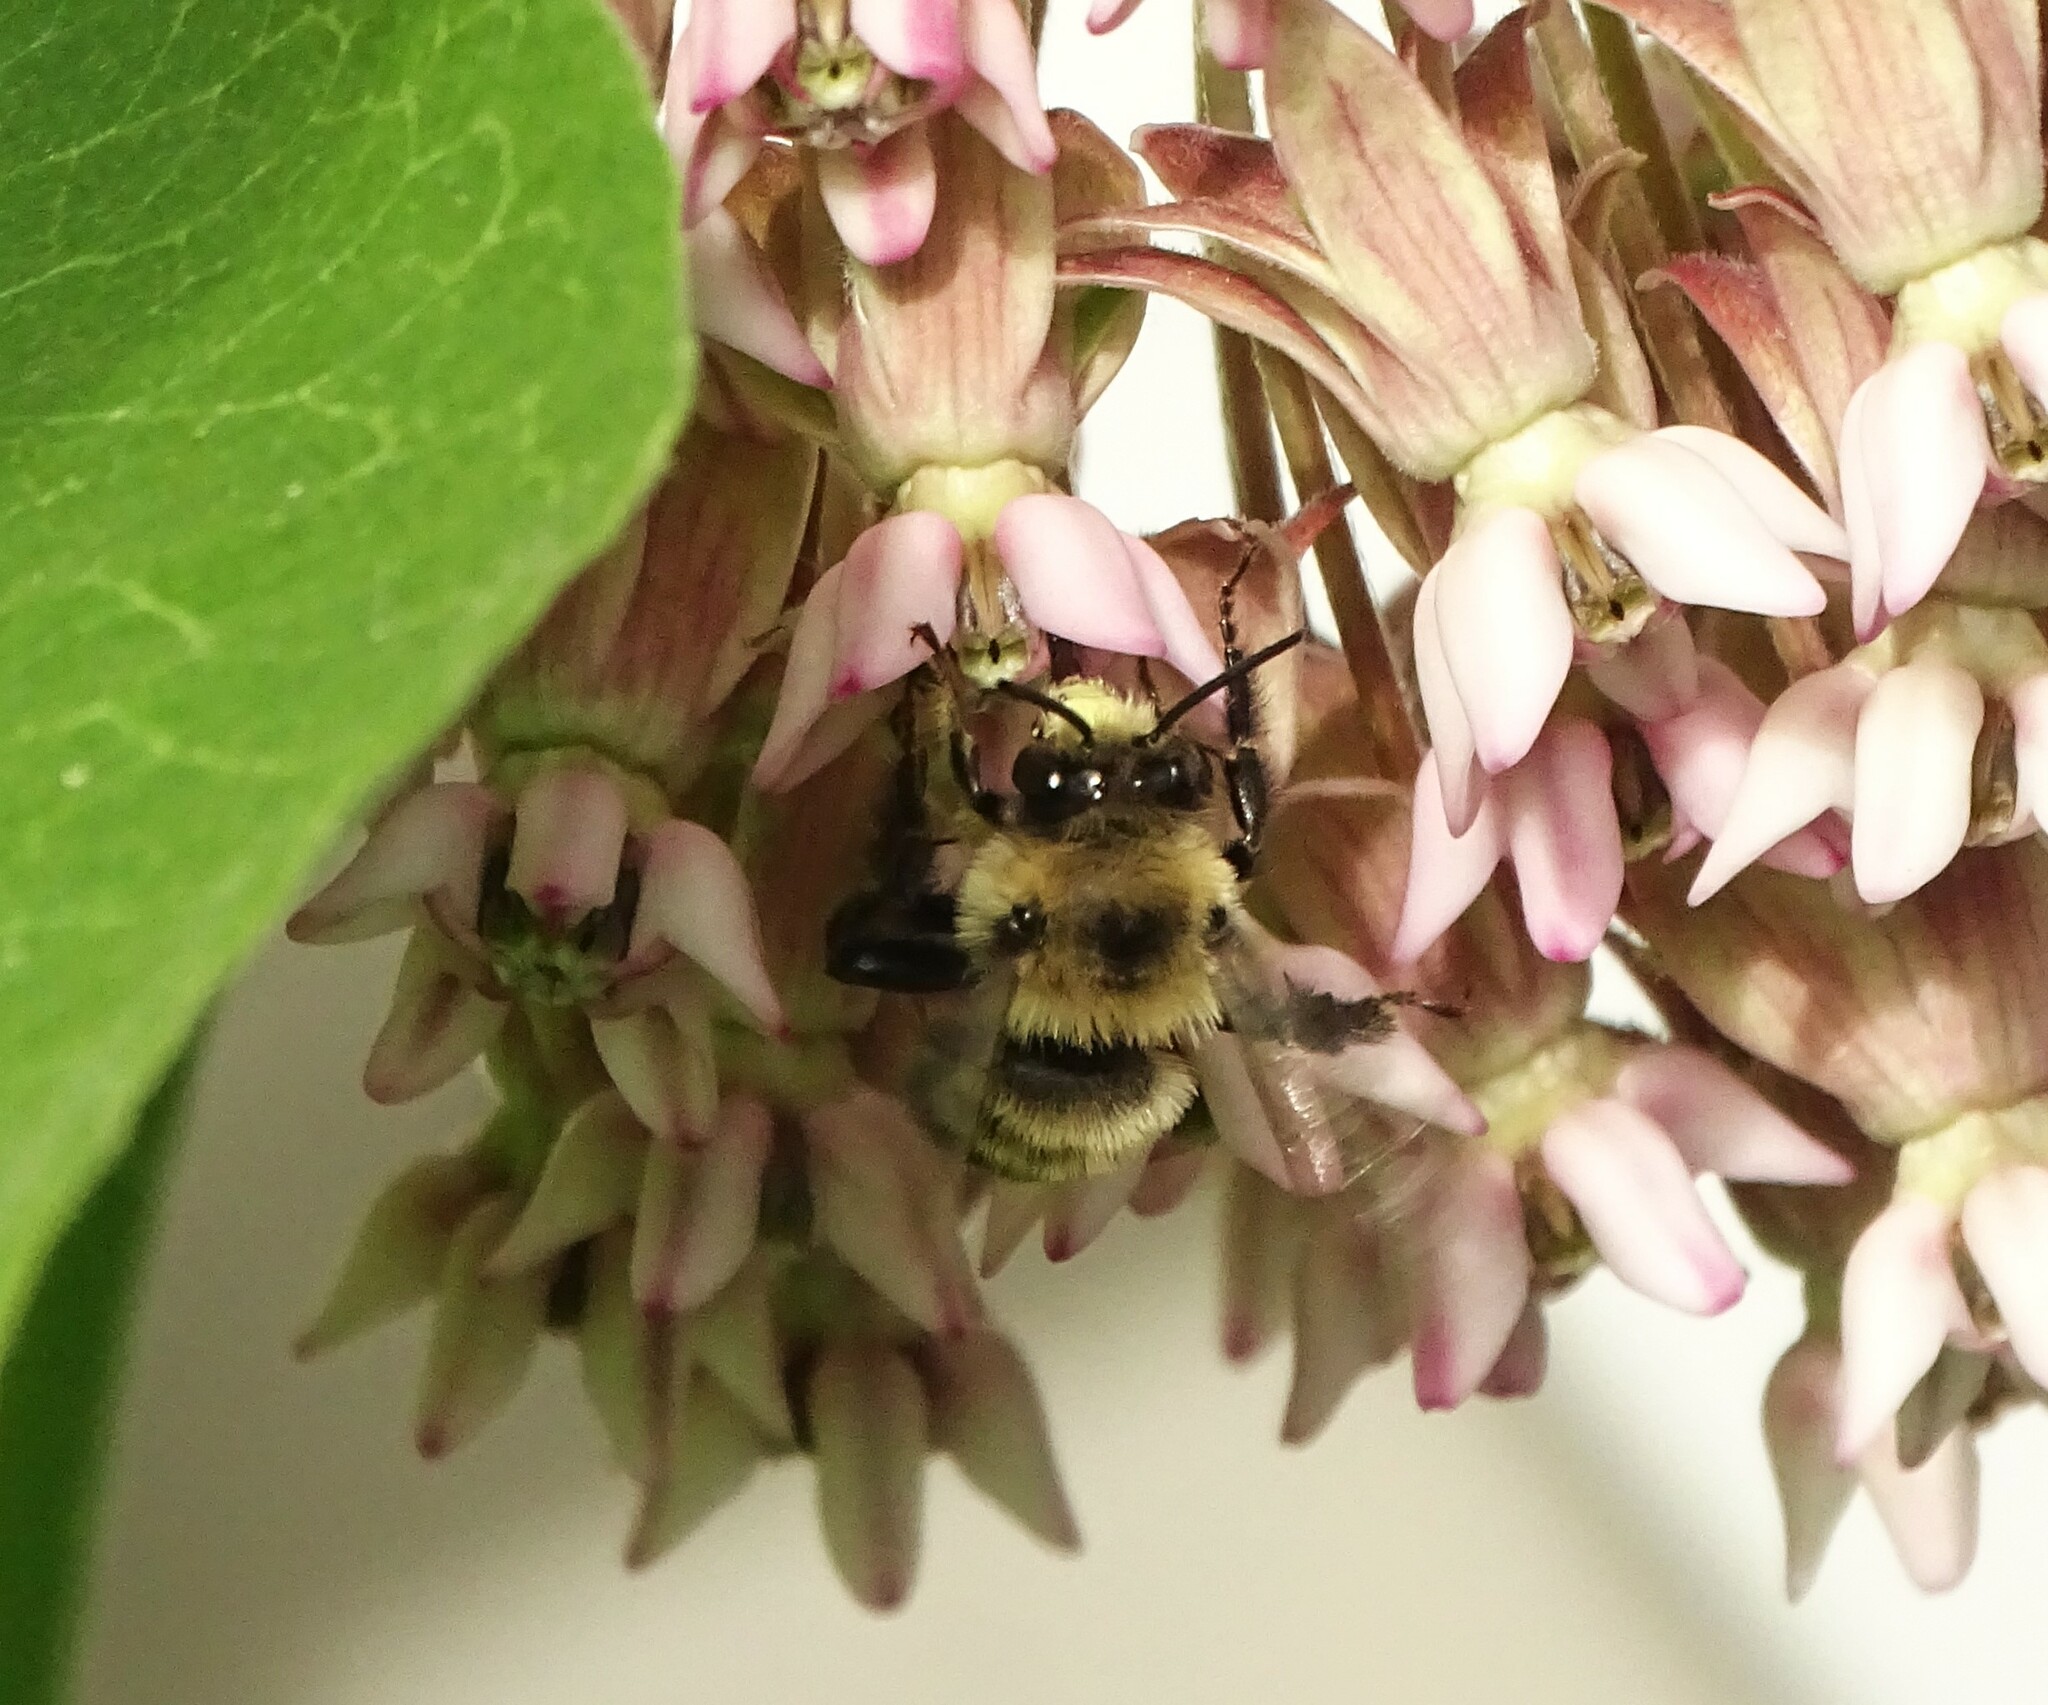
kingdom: Animalia
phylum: Arthropoda
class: Insecta
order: Hymenoptera
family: Apidae
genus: Anthophora
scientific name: Anthophora bomboides
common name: Bumble-bee-mimic digger bee
